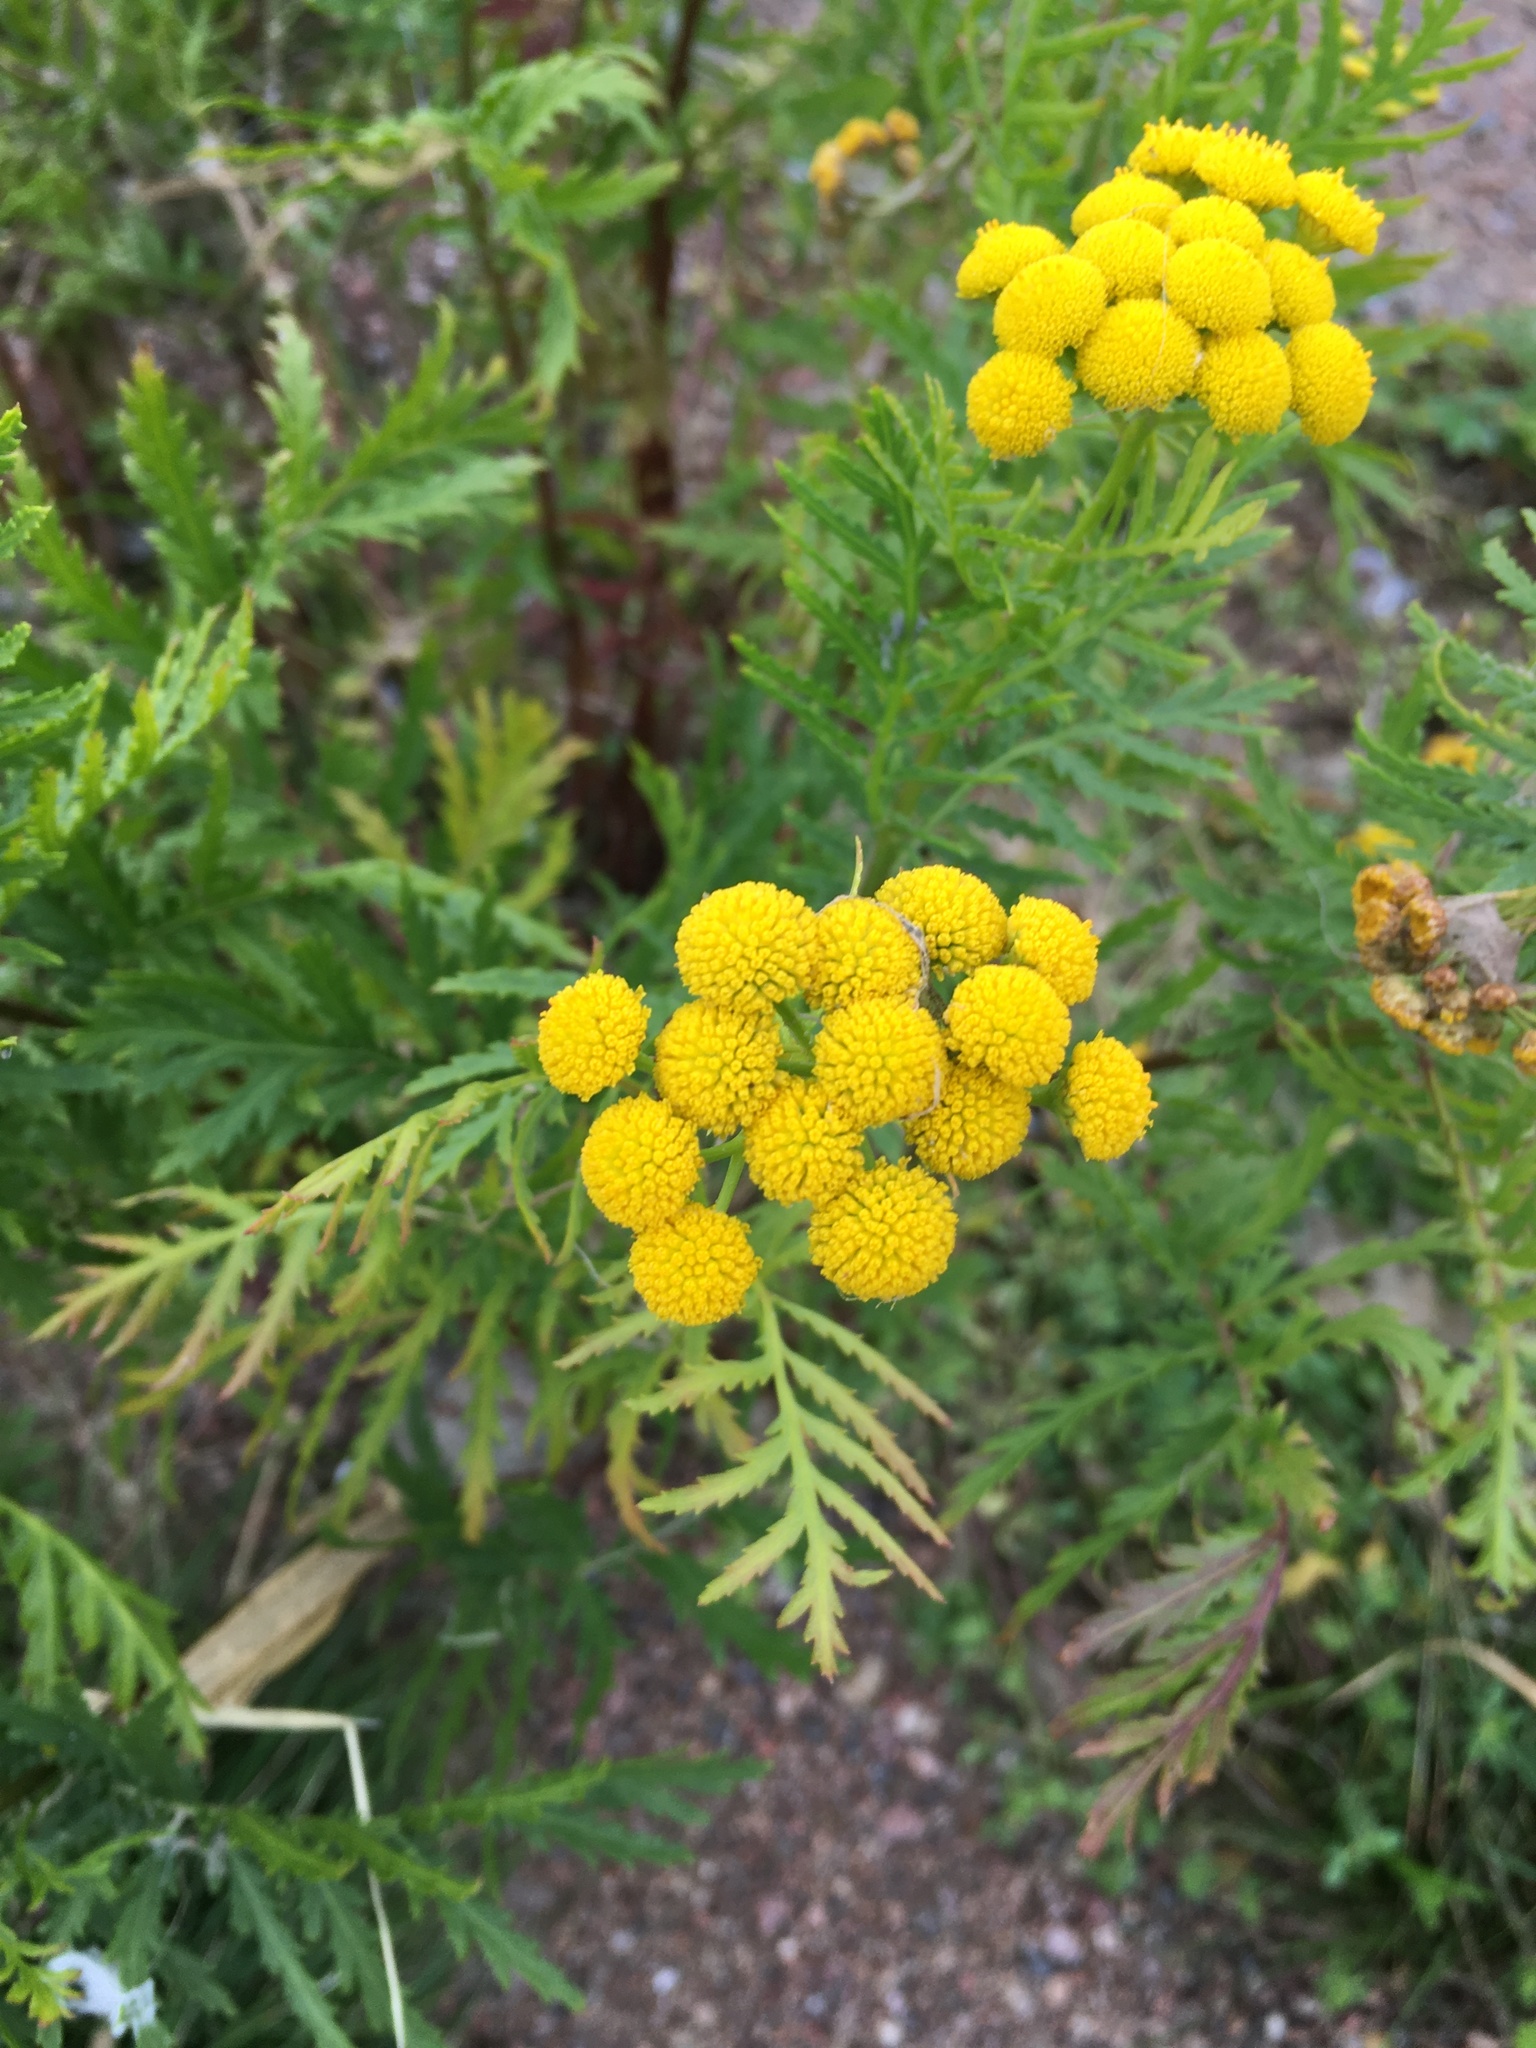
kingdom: Plantae
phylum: Tracheophyta
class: Magnoliopsida
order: Asterales
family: Asteraceae
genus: Tanacetum
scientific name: Tanacetum vulgare
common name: Common tansy
